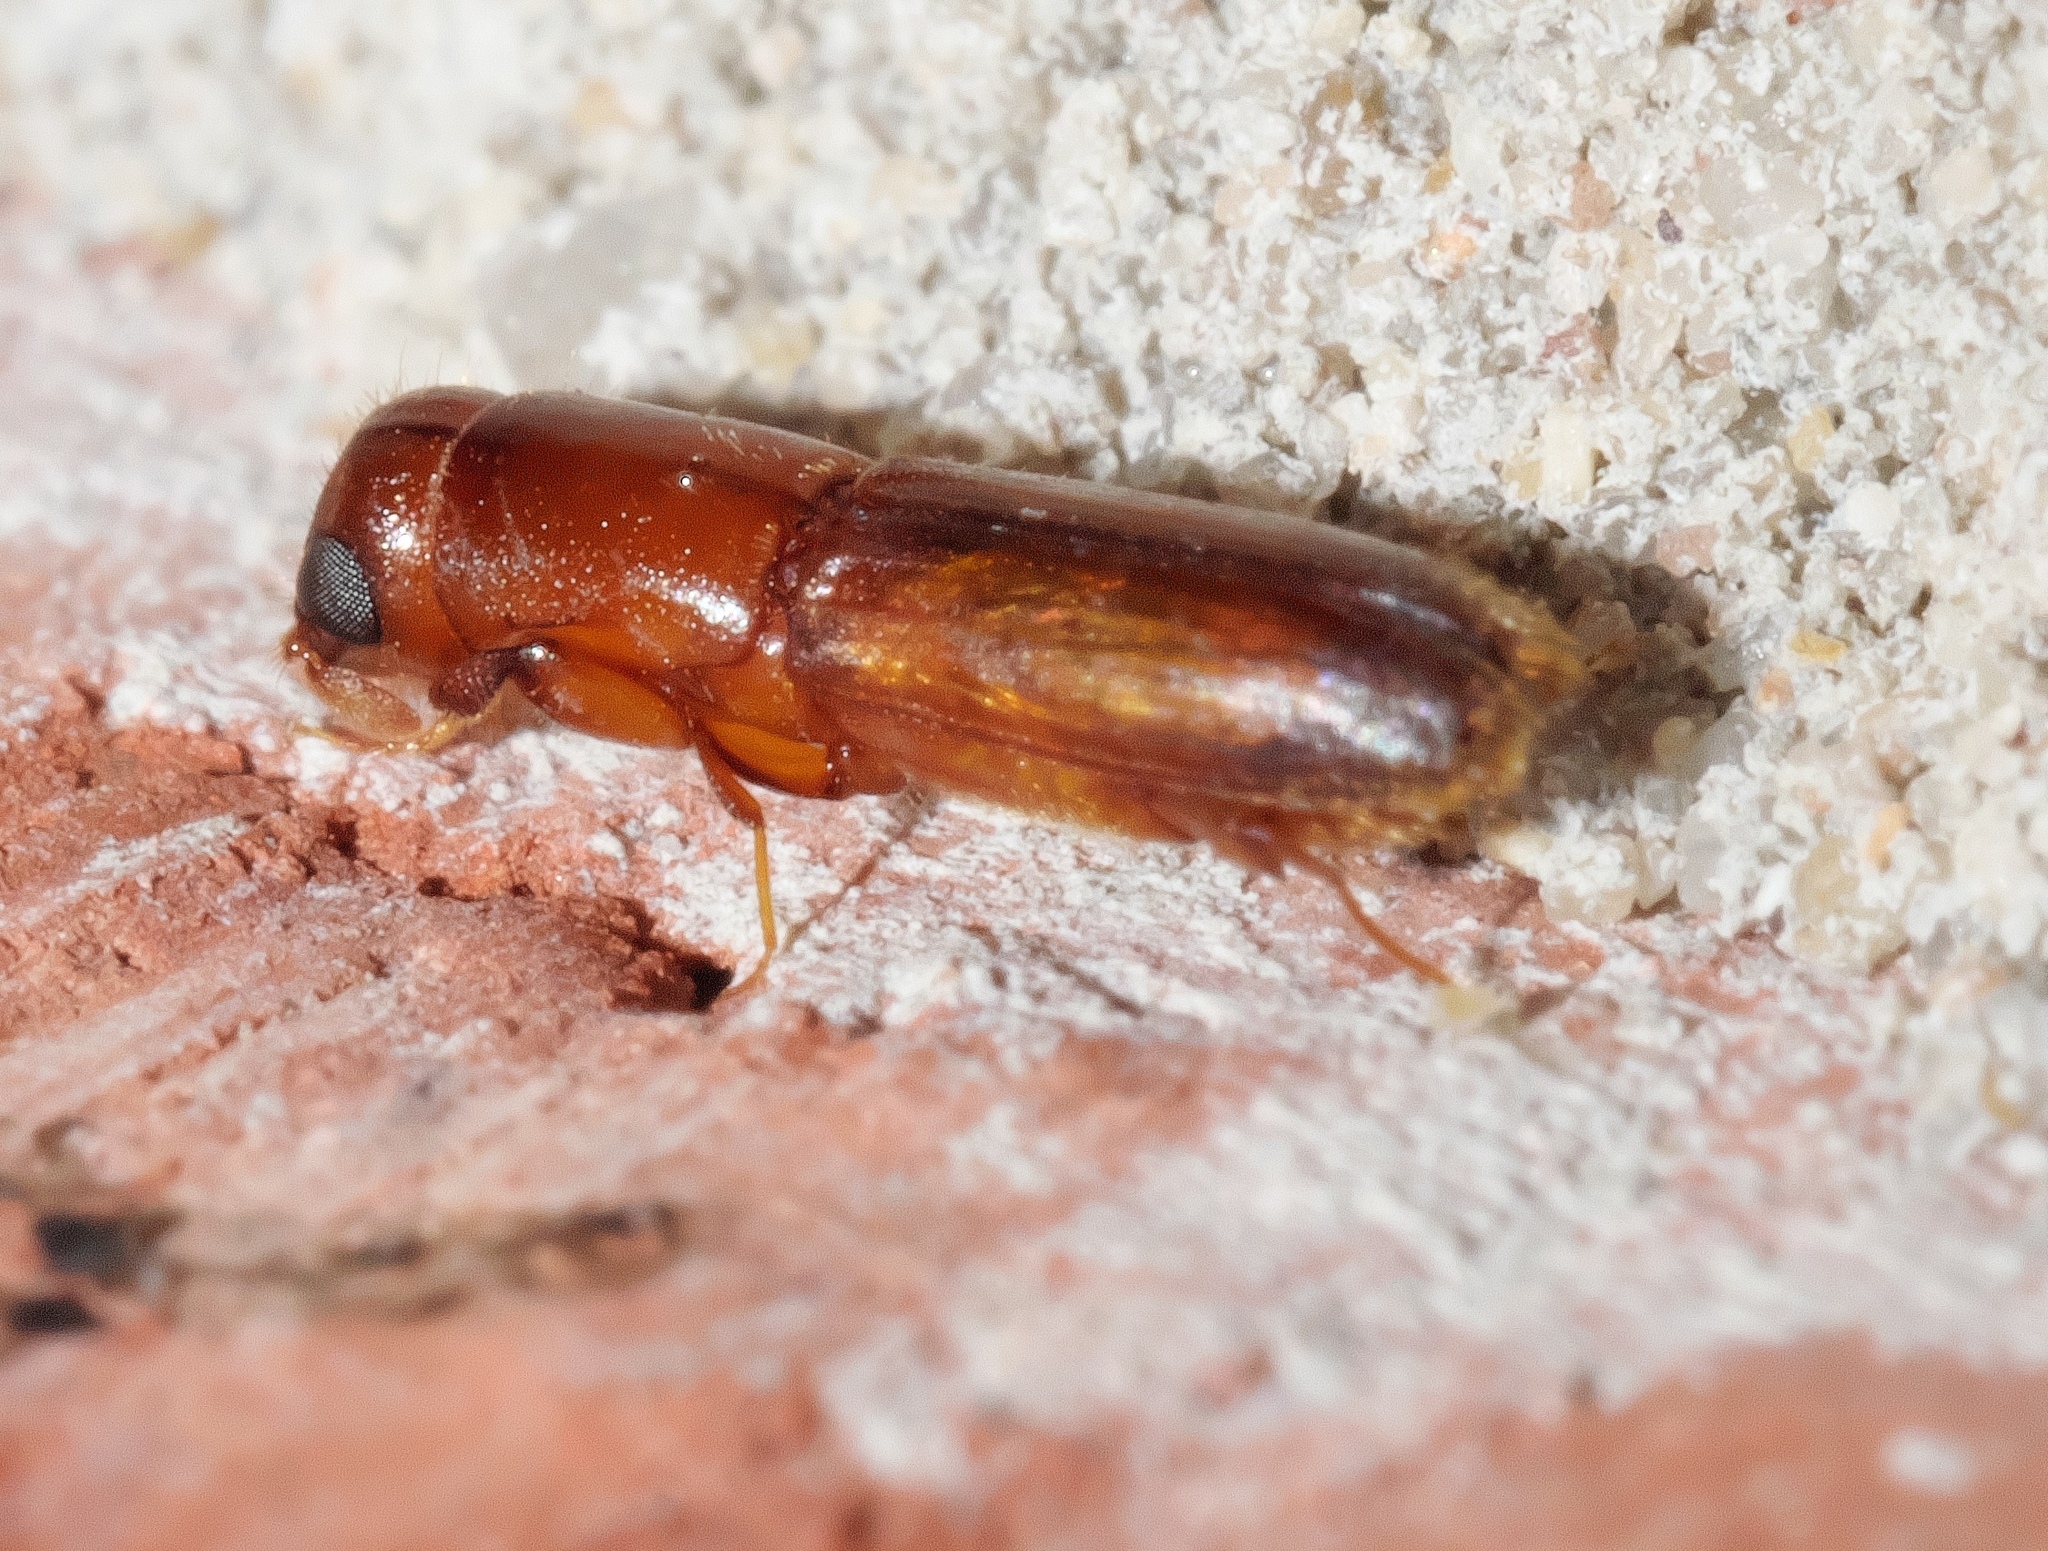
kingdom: Animalia
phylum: Arthropoda
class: Insecta
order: Coleoptera
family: Curculionidae
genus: Euplatypus
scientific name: Euplatypus compositus
